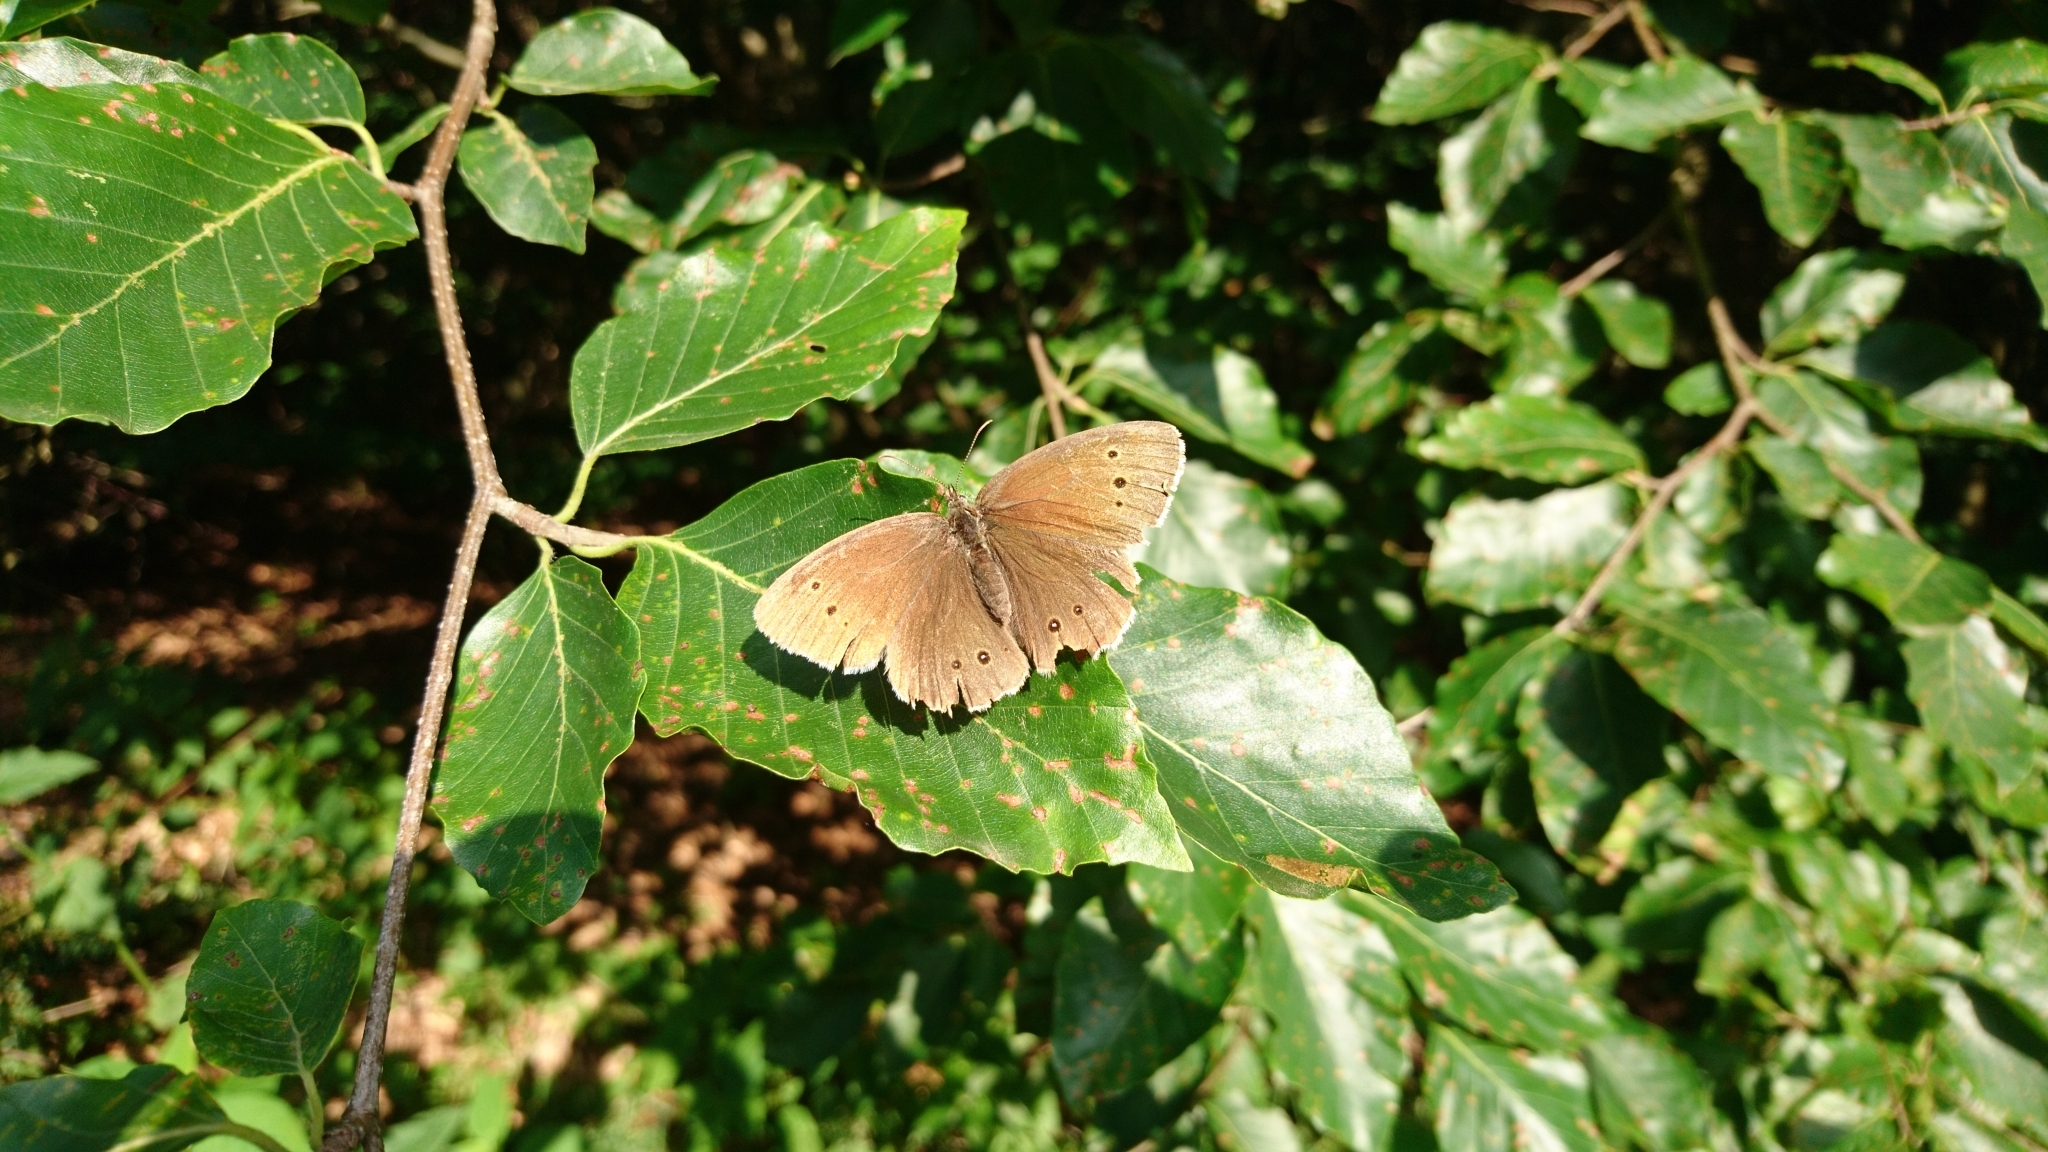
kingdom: Animalia
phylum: Arthropoda
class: Insecta
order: Lepidoptera
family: Nymphalidae
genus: Aphantopus
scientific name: Aphantopus hyperantus
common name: Ringlet
